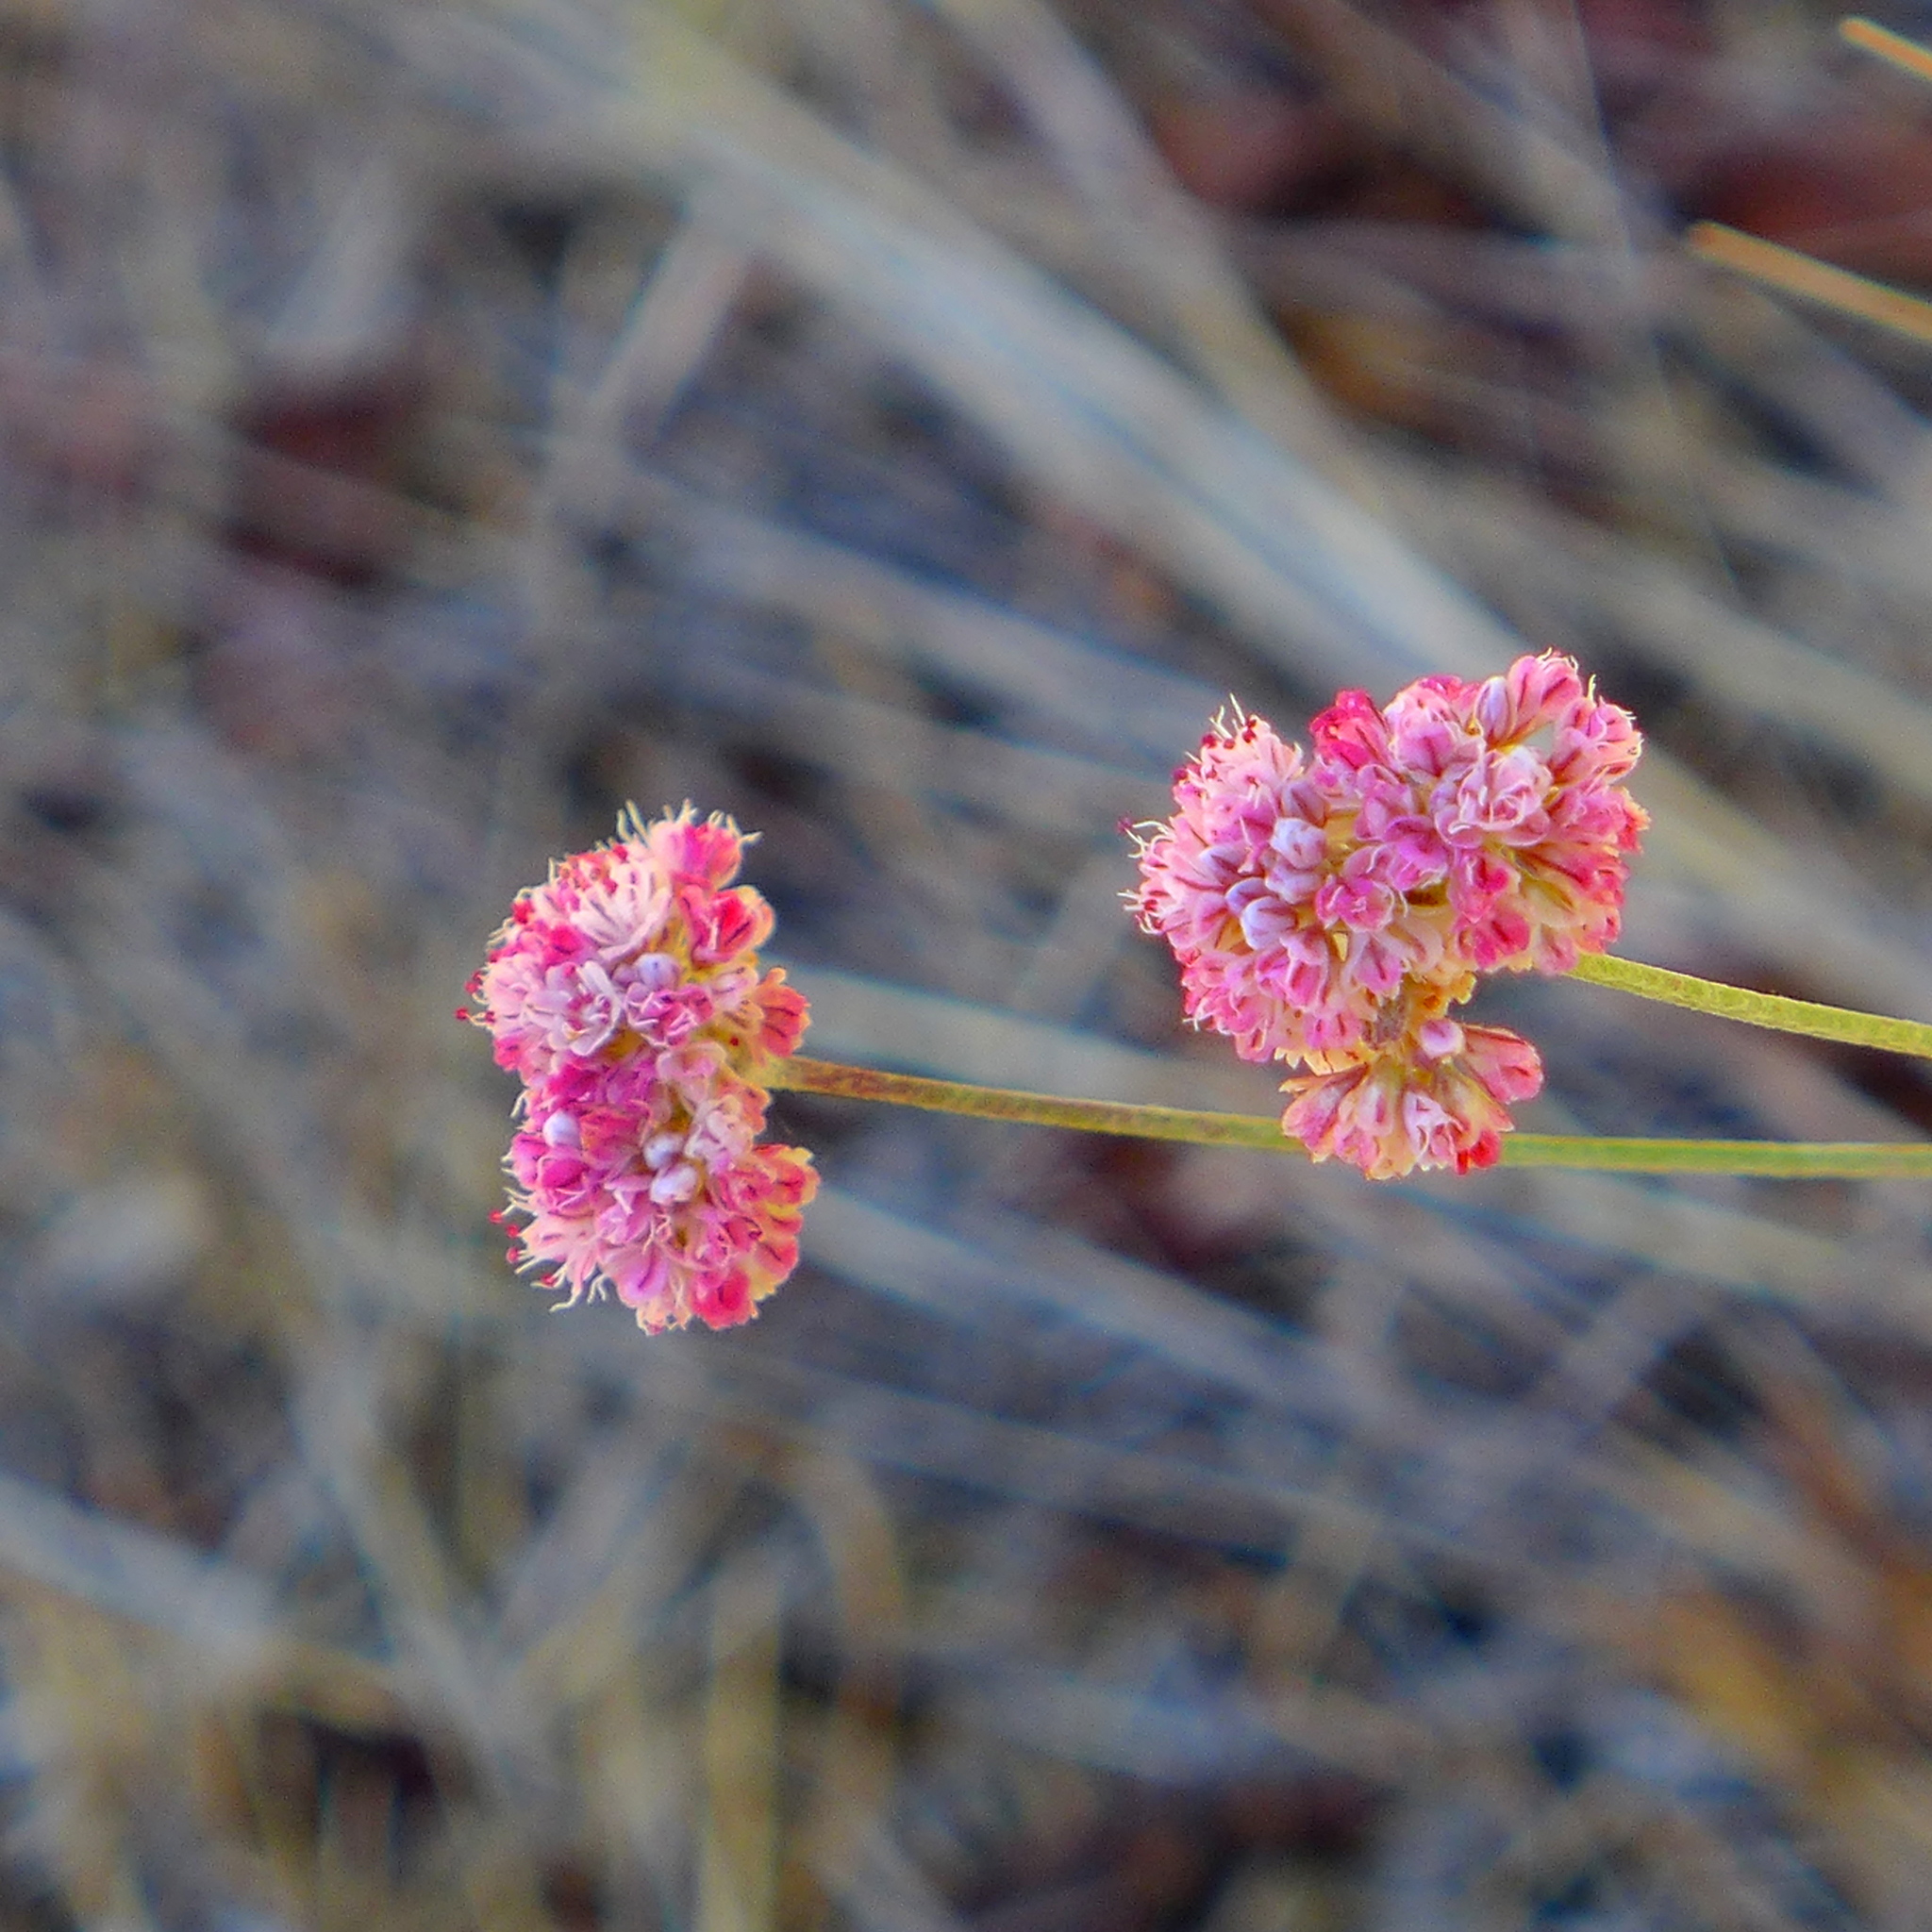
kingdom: Plantae
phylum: Tracheophyta
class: Magnoliopsida
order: Caryophyllales
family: Polygonaceae
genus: Eriogonum
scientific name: Eriogonum nudum
